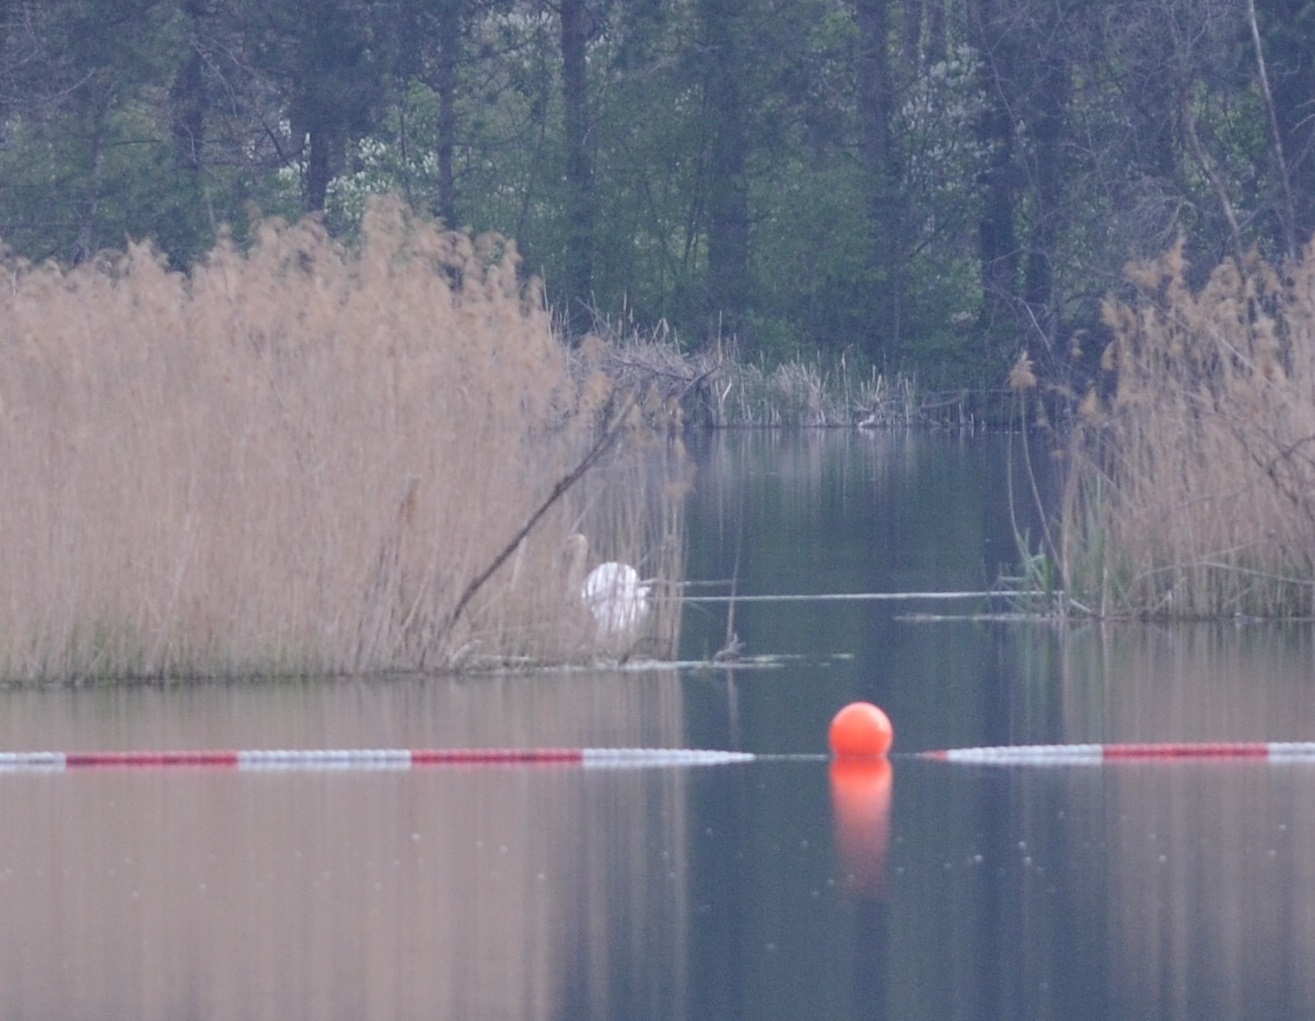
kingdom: Animalia
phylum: Chordata
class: Aves
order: Anseriformes
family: Anatidae
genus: Cygnus
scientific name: Cygnus olor
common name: Mute swan
